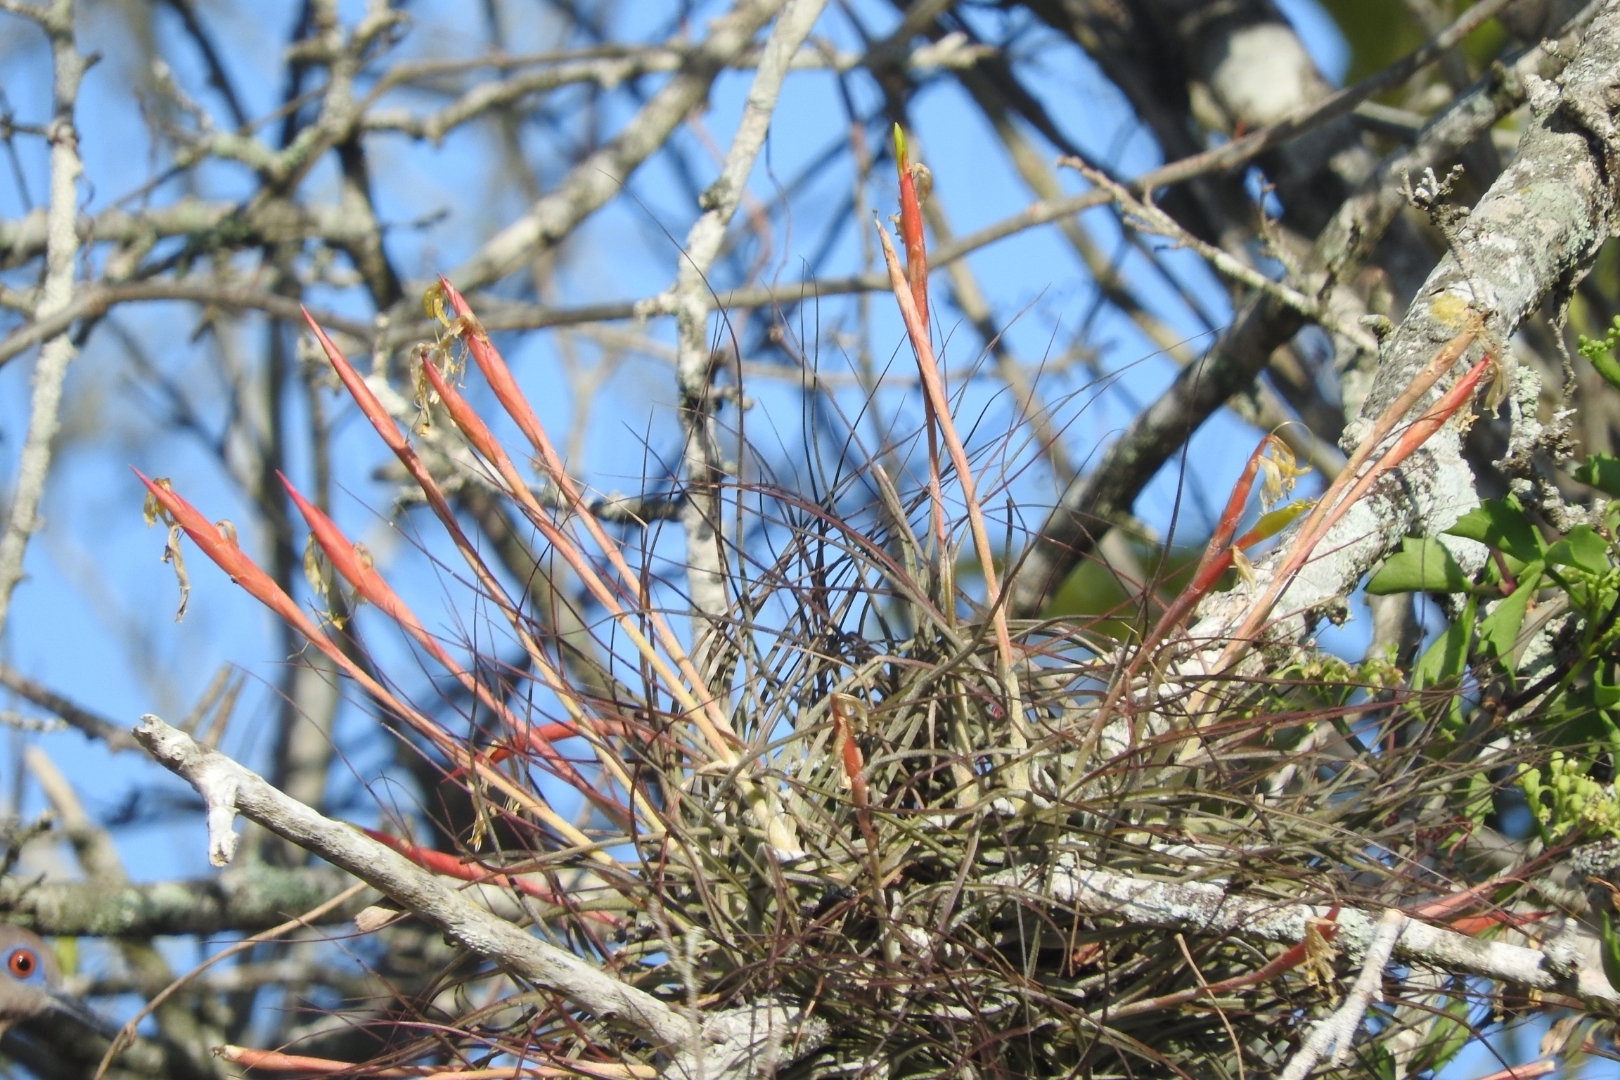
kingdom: Plantae
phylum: Tracheophyta
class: Liliopsida
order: Poales
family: Bromeliaceae
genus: Tillandsia
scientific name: Tillandsia schiedeana
